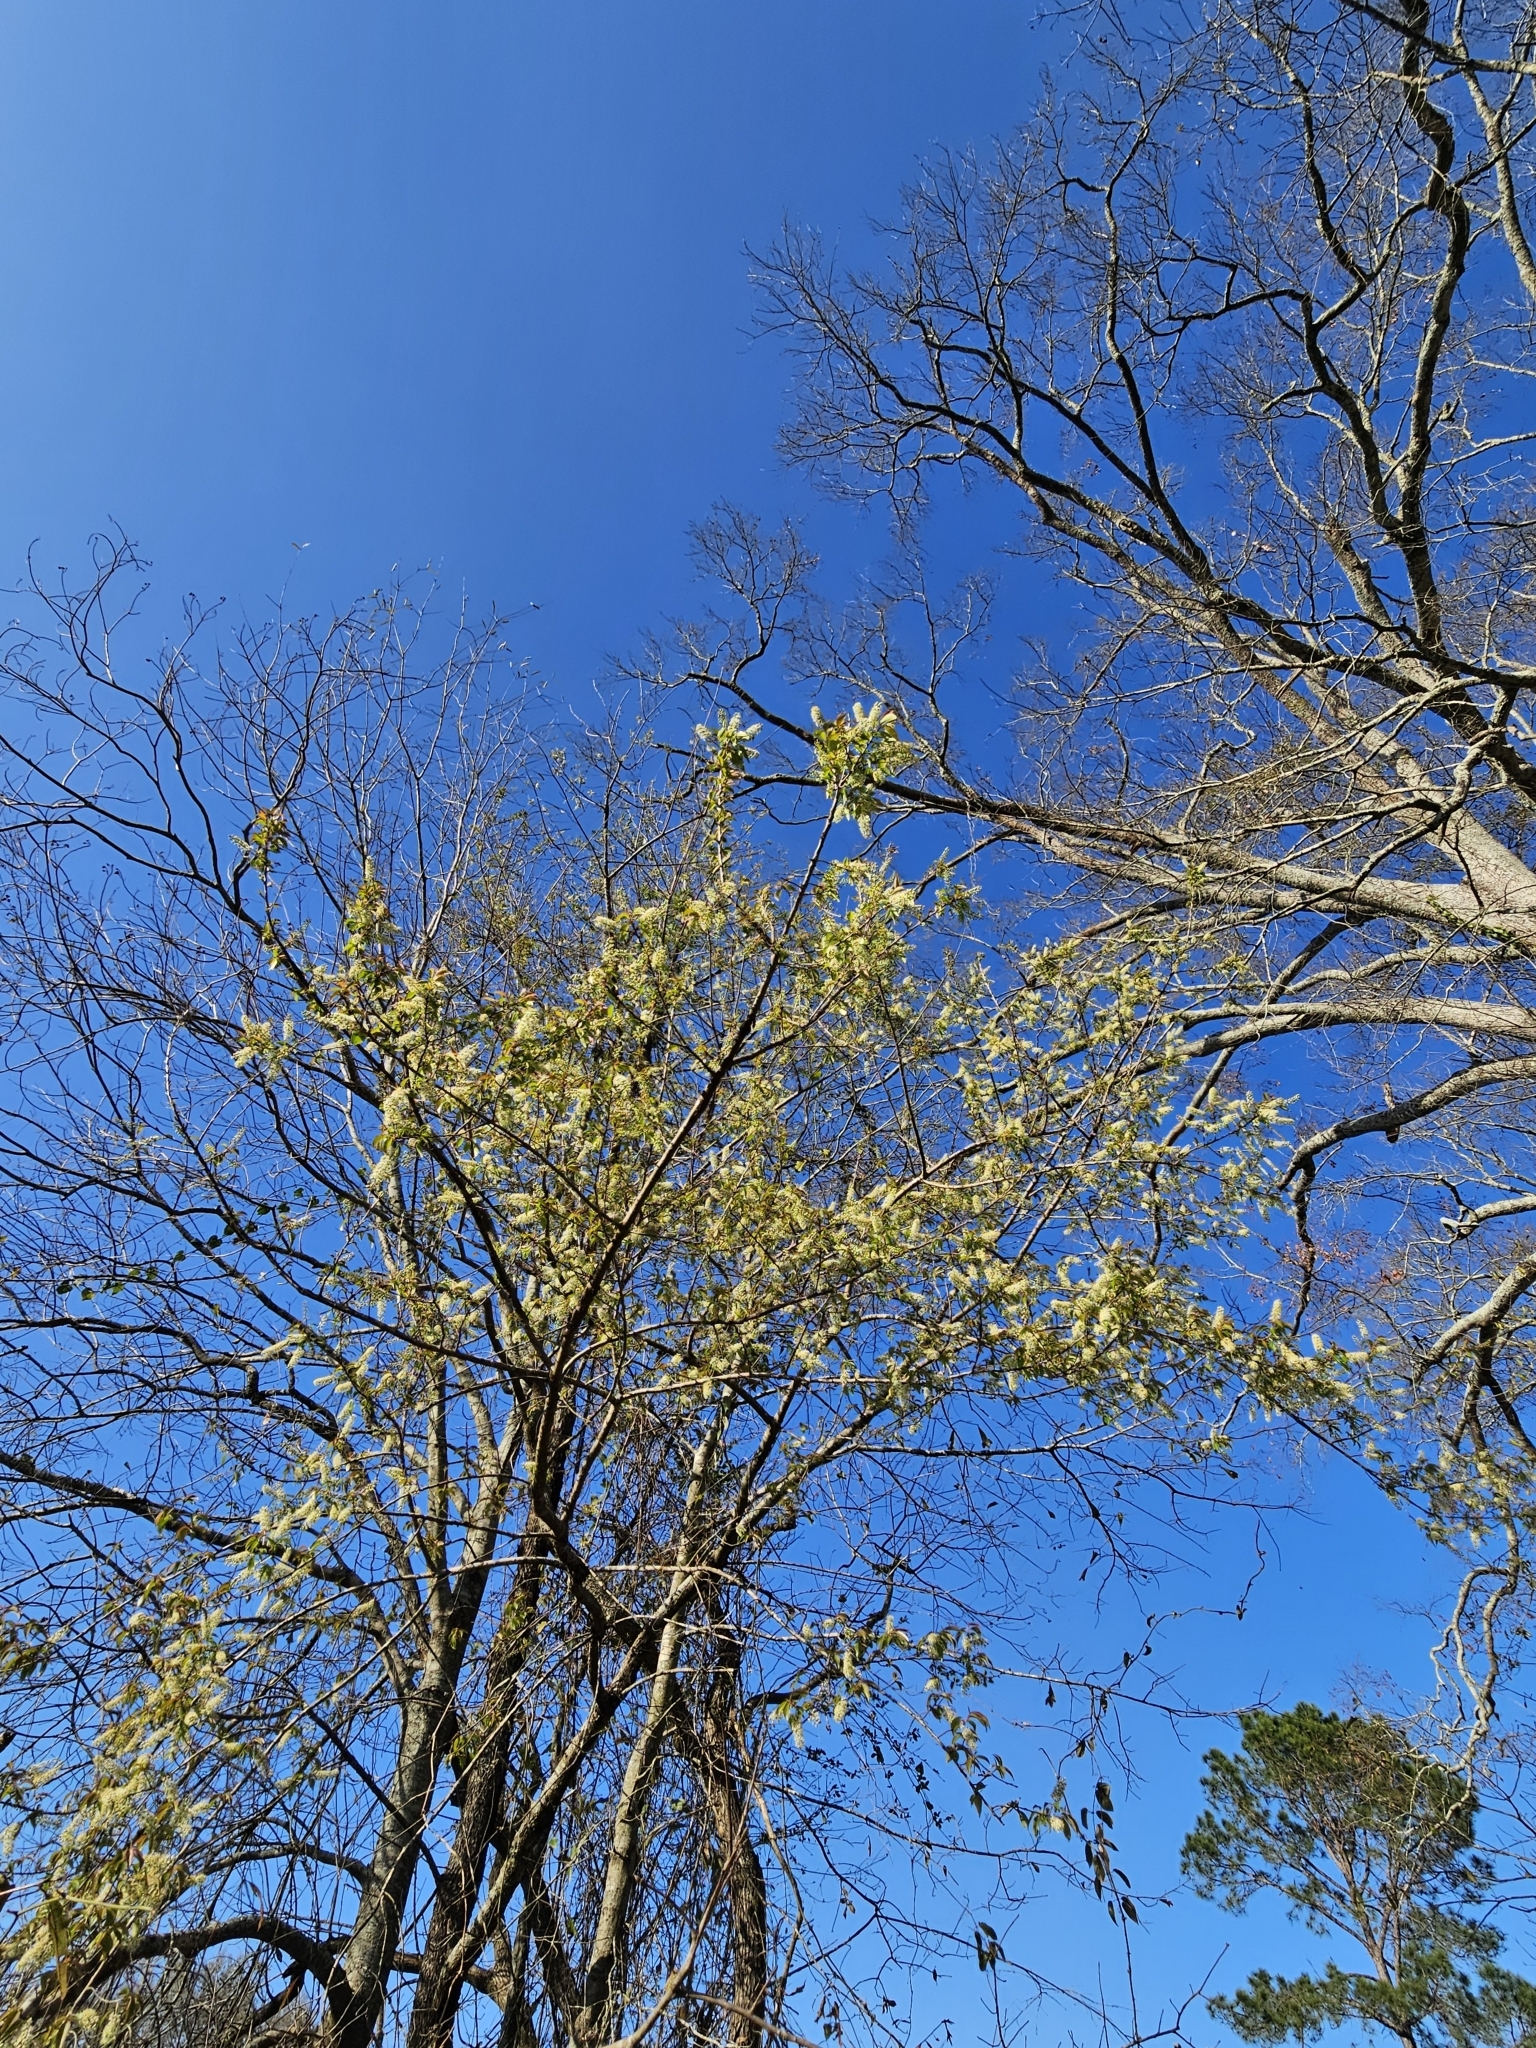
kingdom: Plantae
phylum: Tracheophyta
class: Magnoliopsida
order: Rosales
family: Rosaceae
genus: Prunus
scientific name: Prunus serotina
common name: Black cherry
